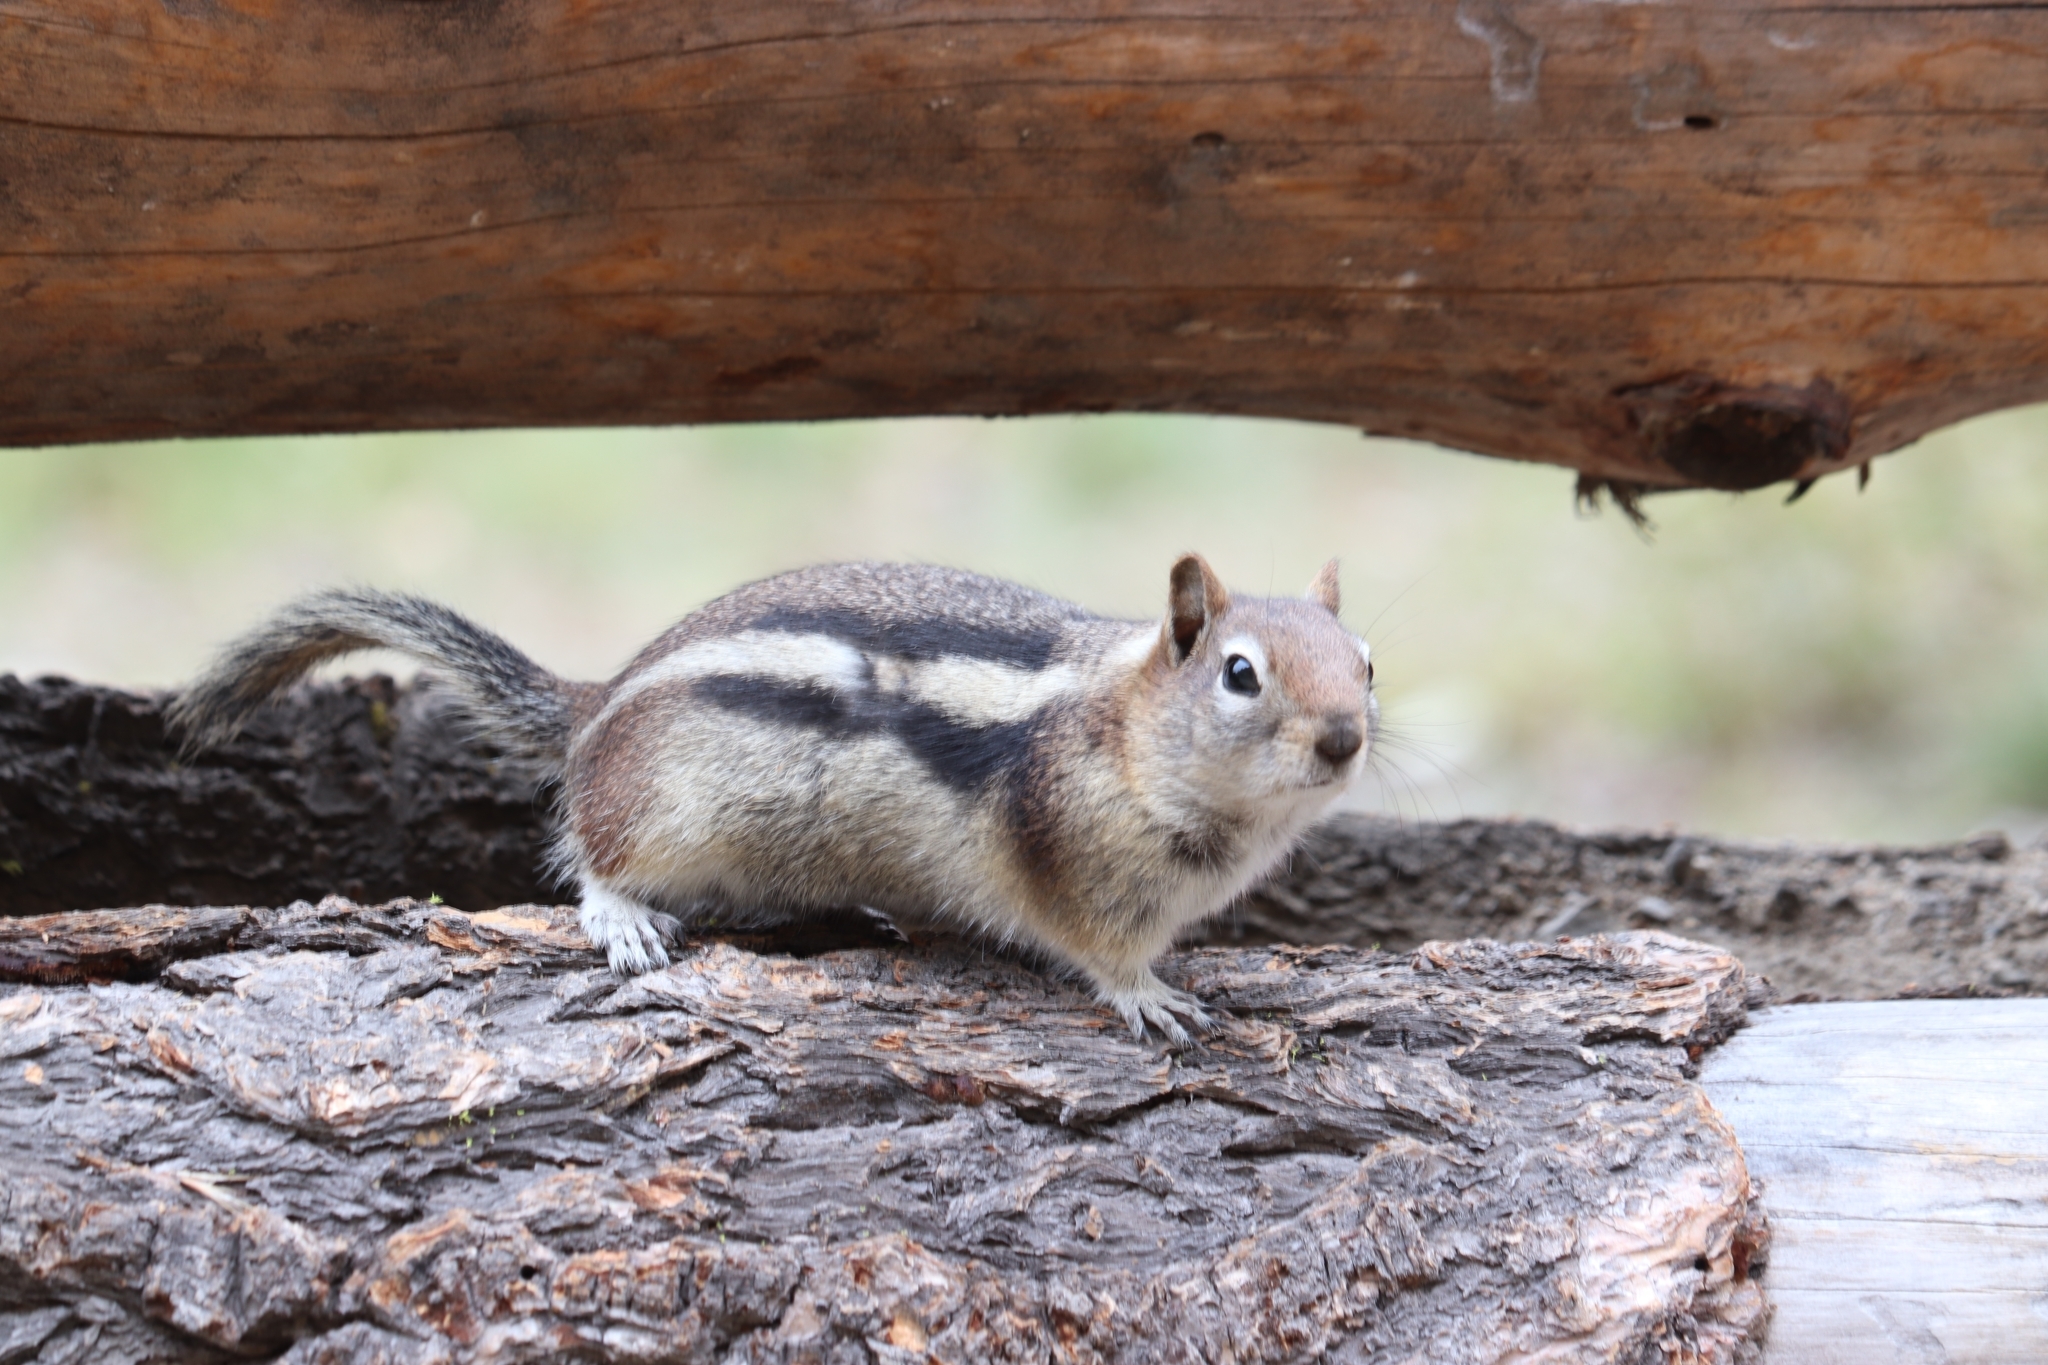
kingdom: Animalia
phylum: Chordata
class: Mammalia
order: Rodentia
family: Sciuridae
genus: Callospermophilus
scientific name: Callospermophilus lateralis
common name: Golden-mantled ground squirrel
